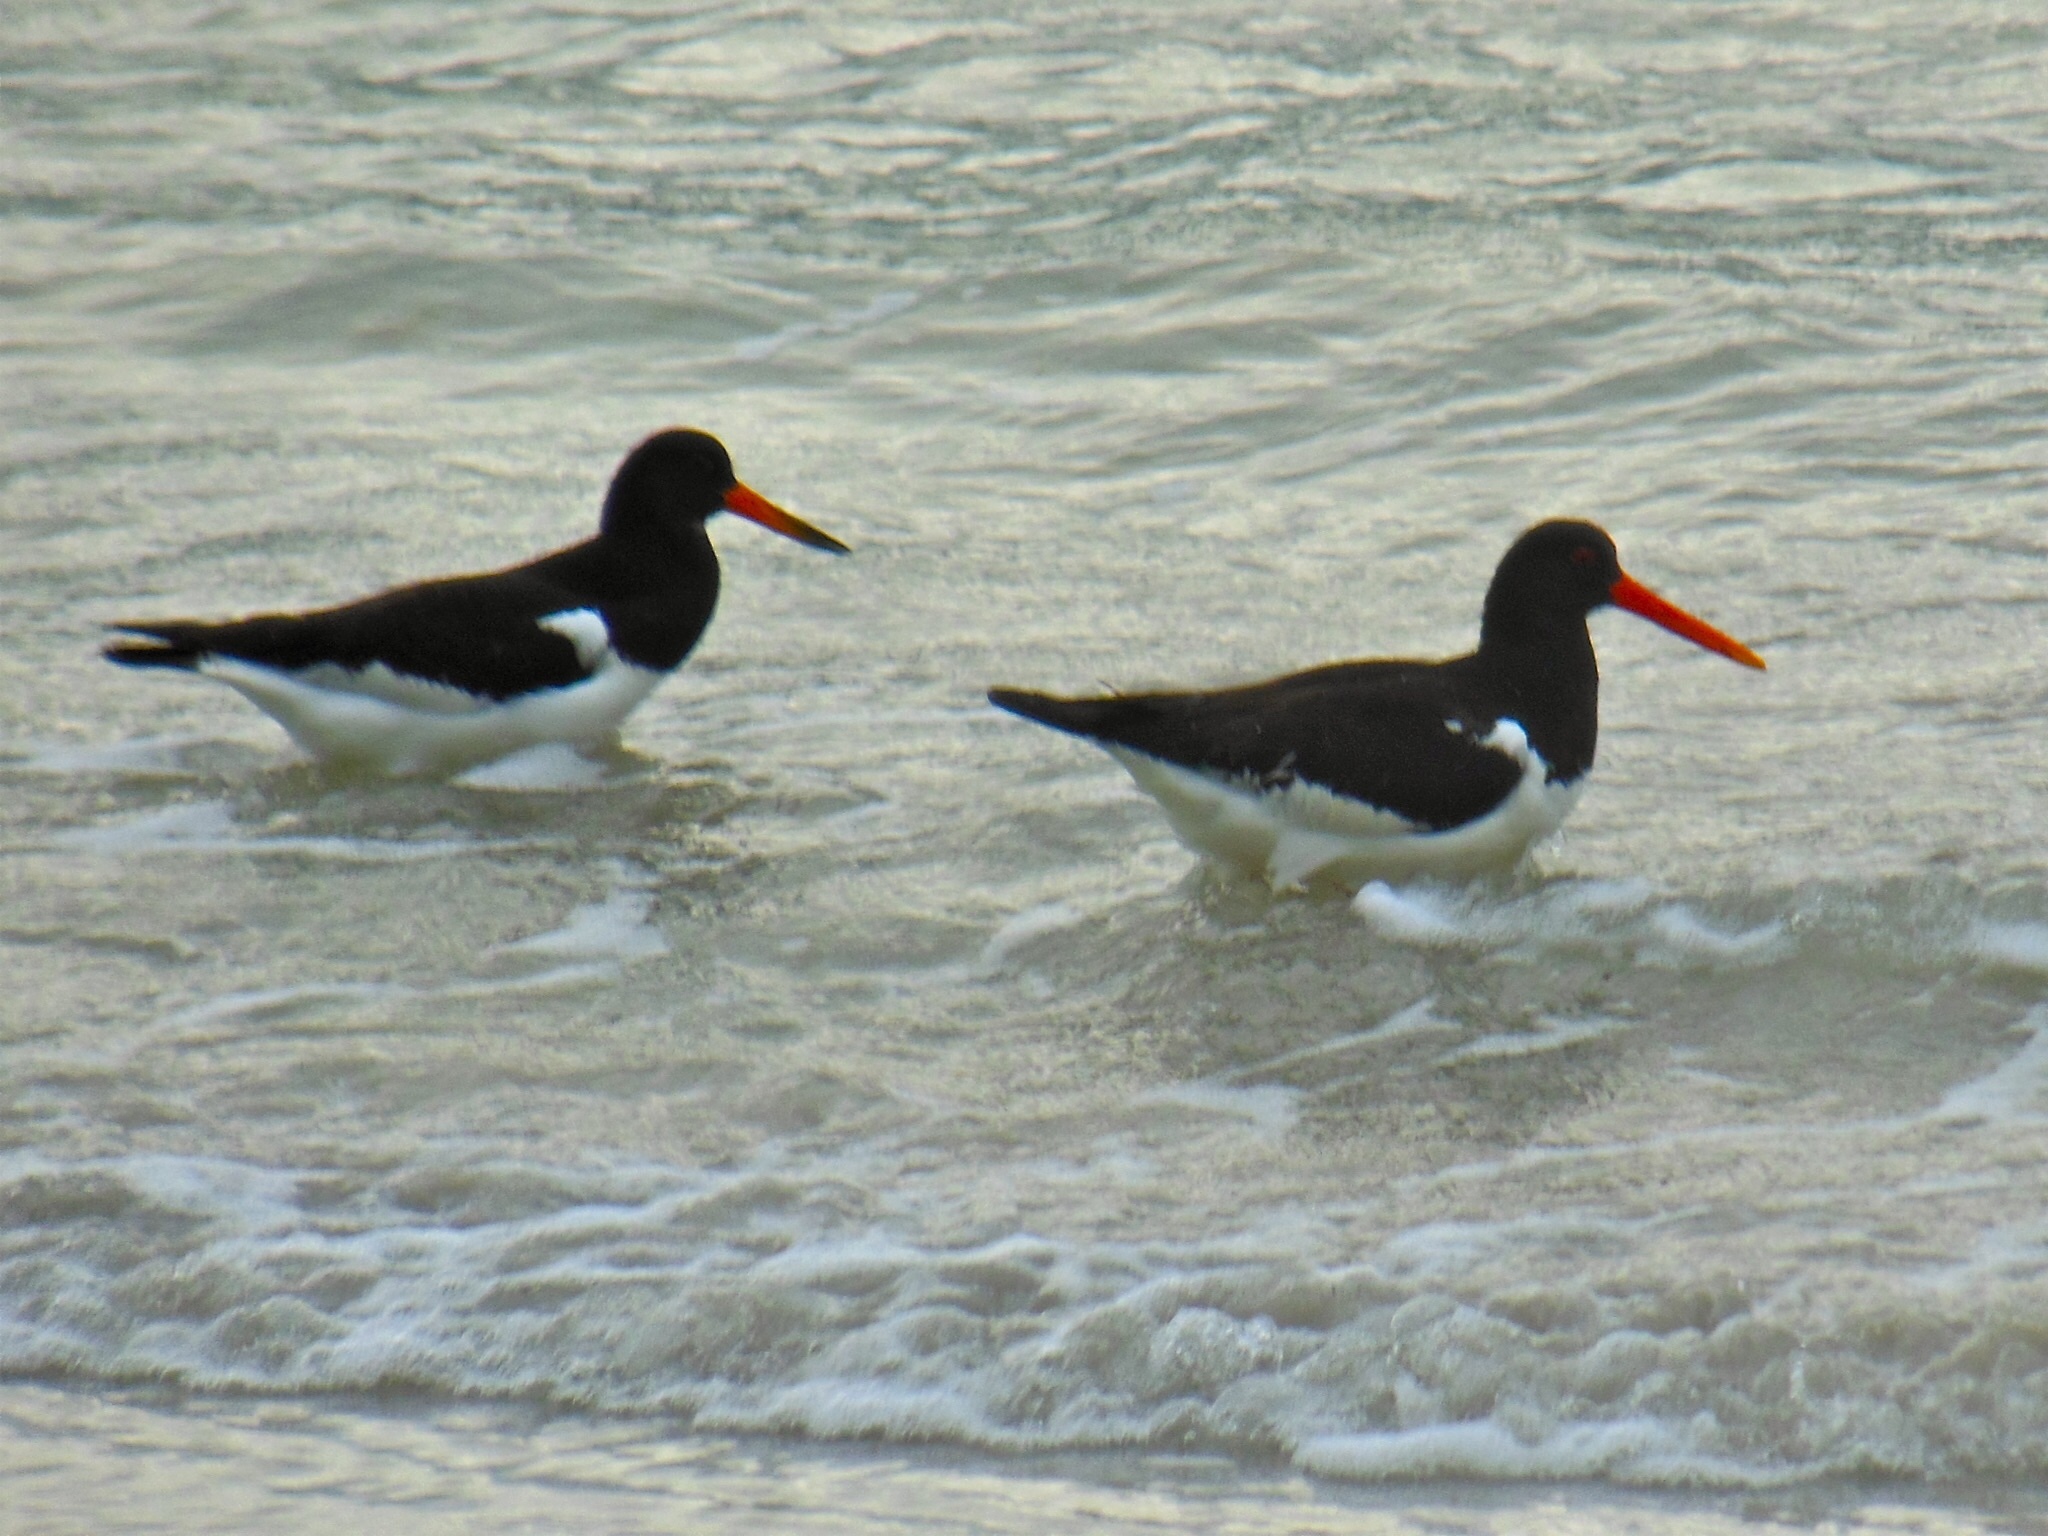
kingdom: Animalia
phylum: Chordata
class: Aves
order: Charadriiformes
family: Haematopodidae
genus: Haematopus
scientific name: Haematopus ostralegus
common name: Eurasian oystercatcher
